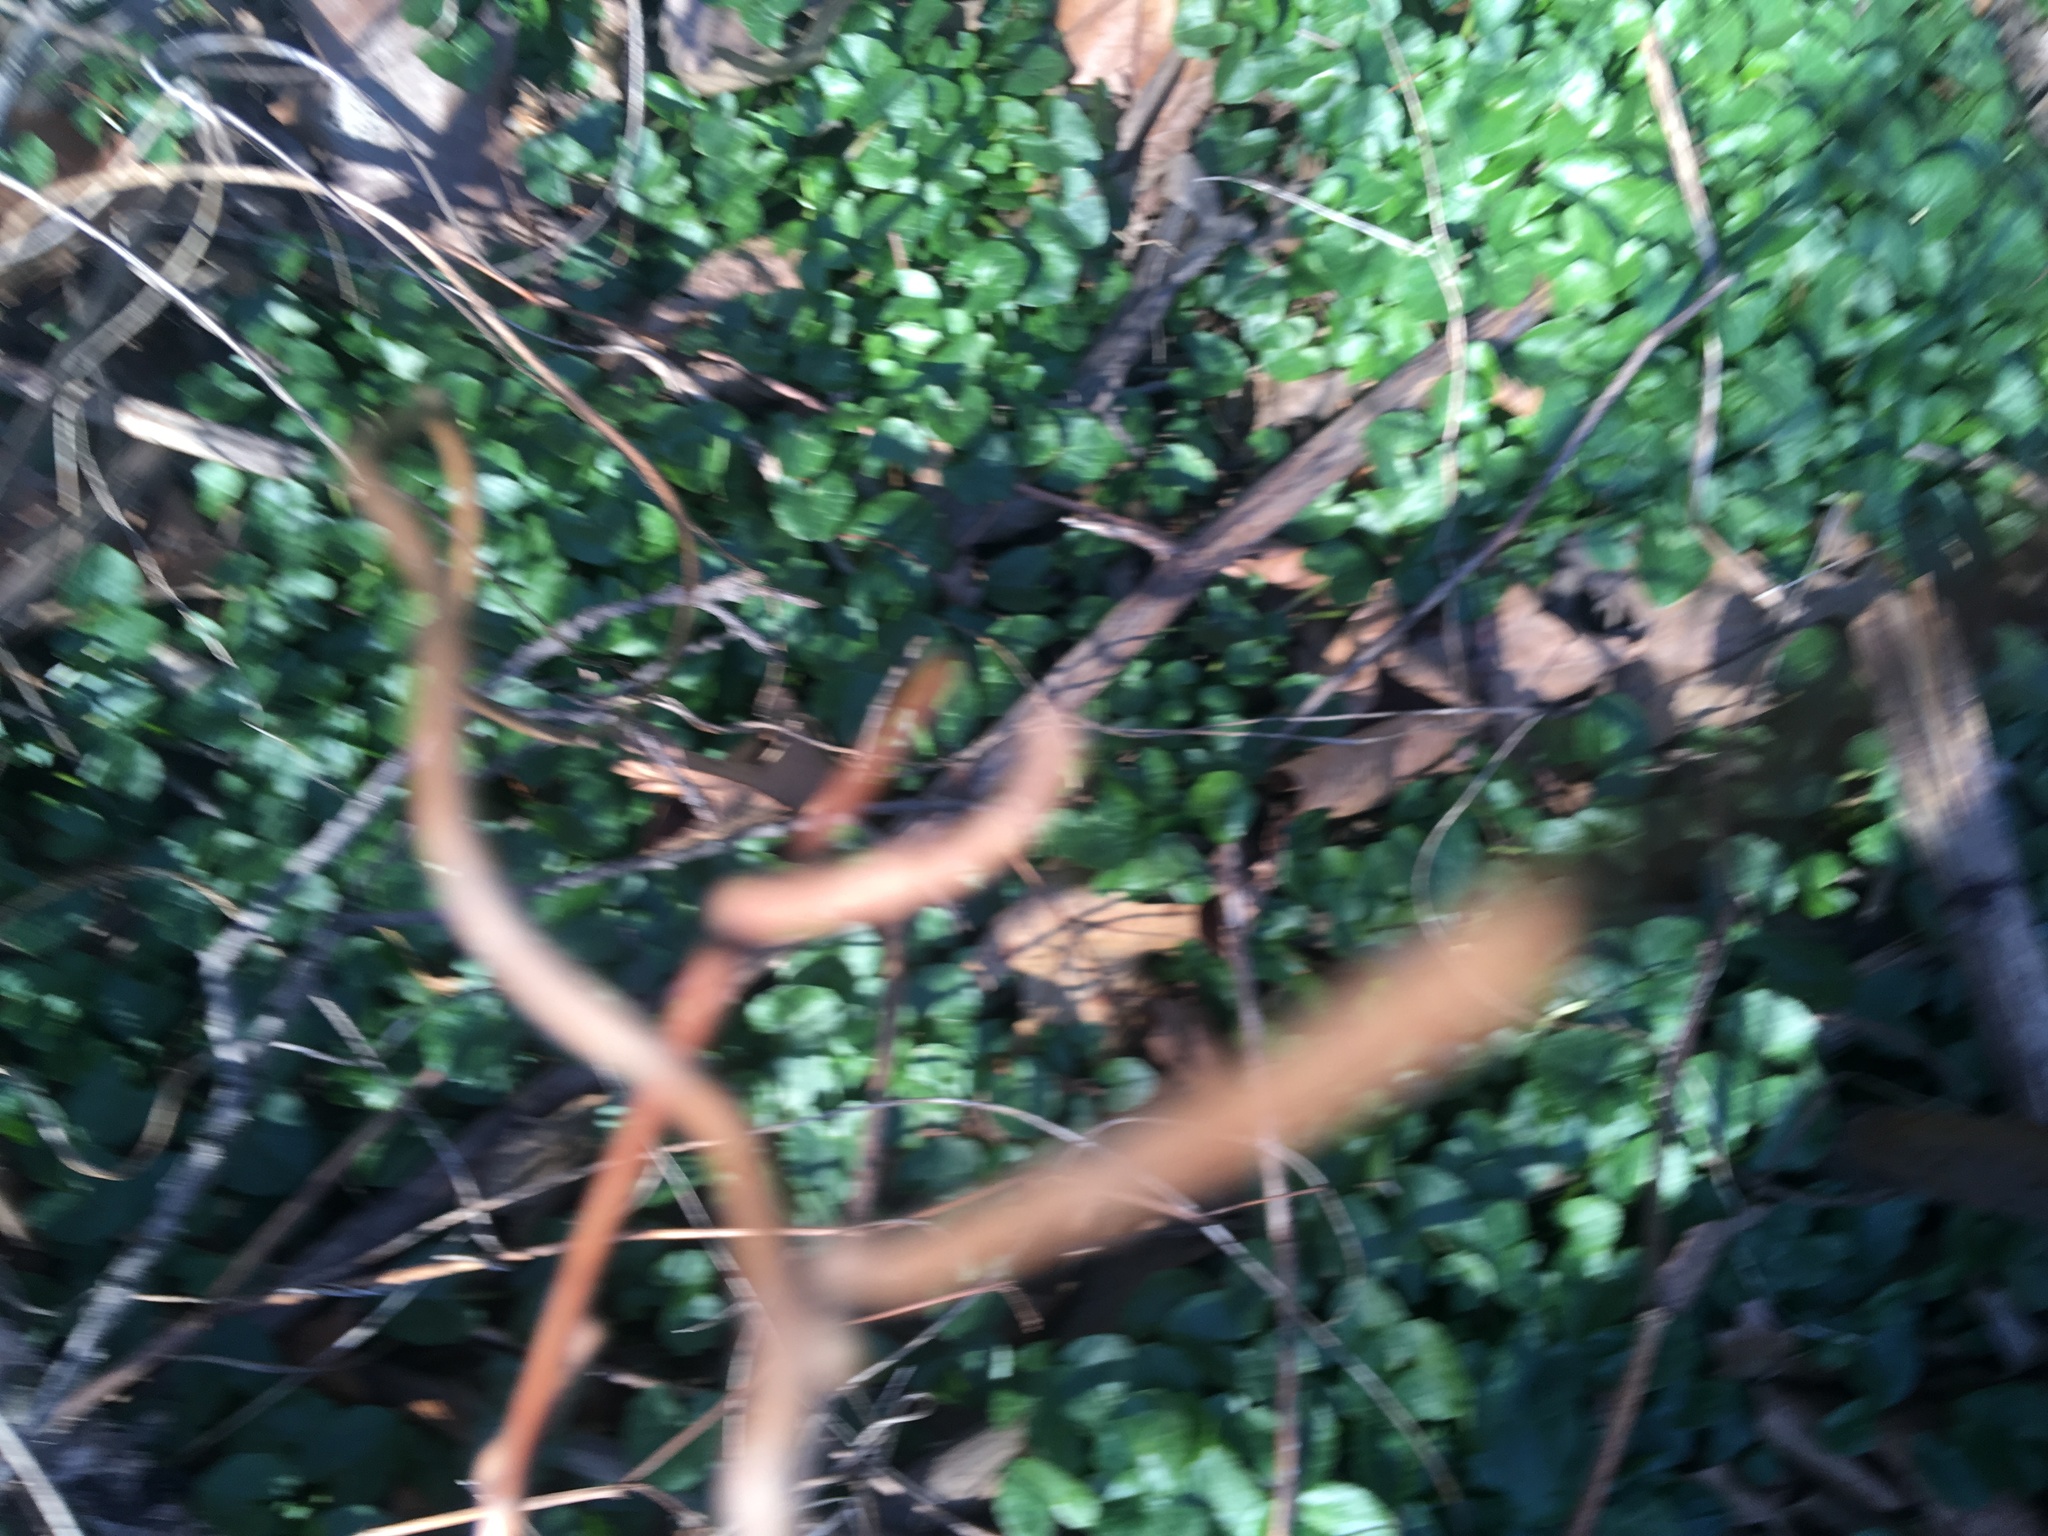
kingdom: Plantae
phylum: Tracheophyta
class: Magnoliopsida
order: Ranunculales
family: Ranunculaceae
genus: Ficaria
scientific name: Ficaria verna
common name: Lesser celandine
